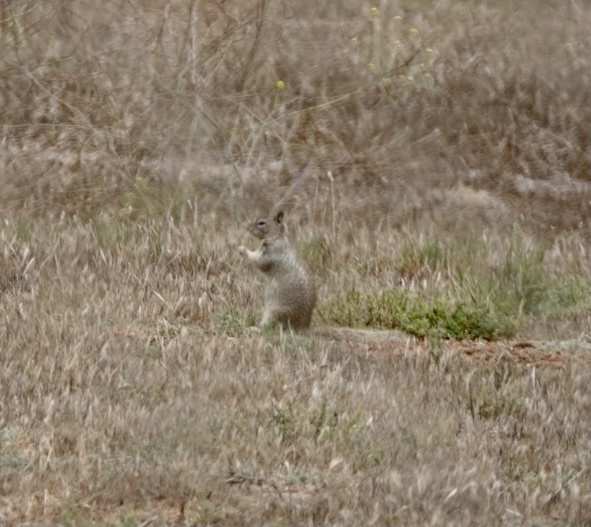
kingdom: Animalia
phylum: Chordata
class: Mammalia
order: Rodentia
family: Sciuridae
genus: Otospermophilus
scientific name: Otospermophilus beecheyi
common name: California ground squirrel
